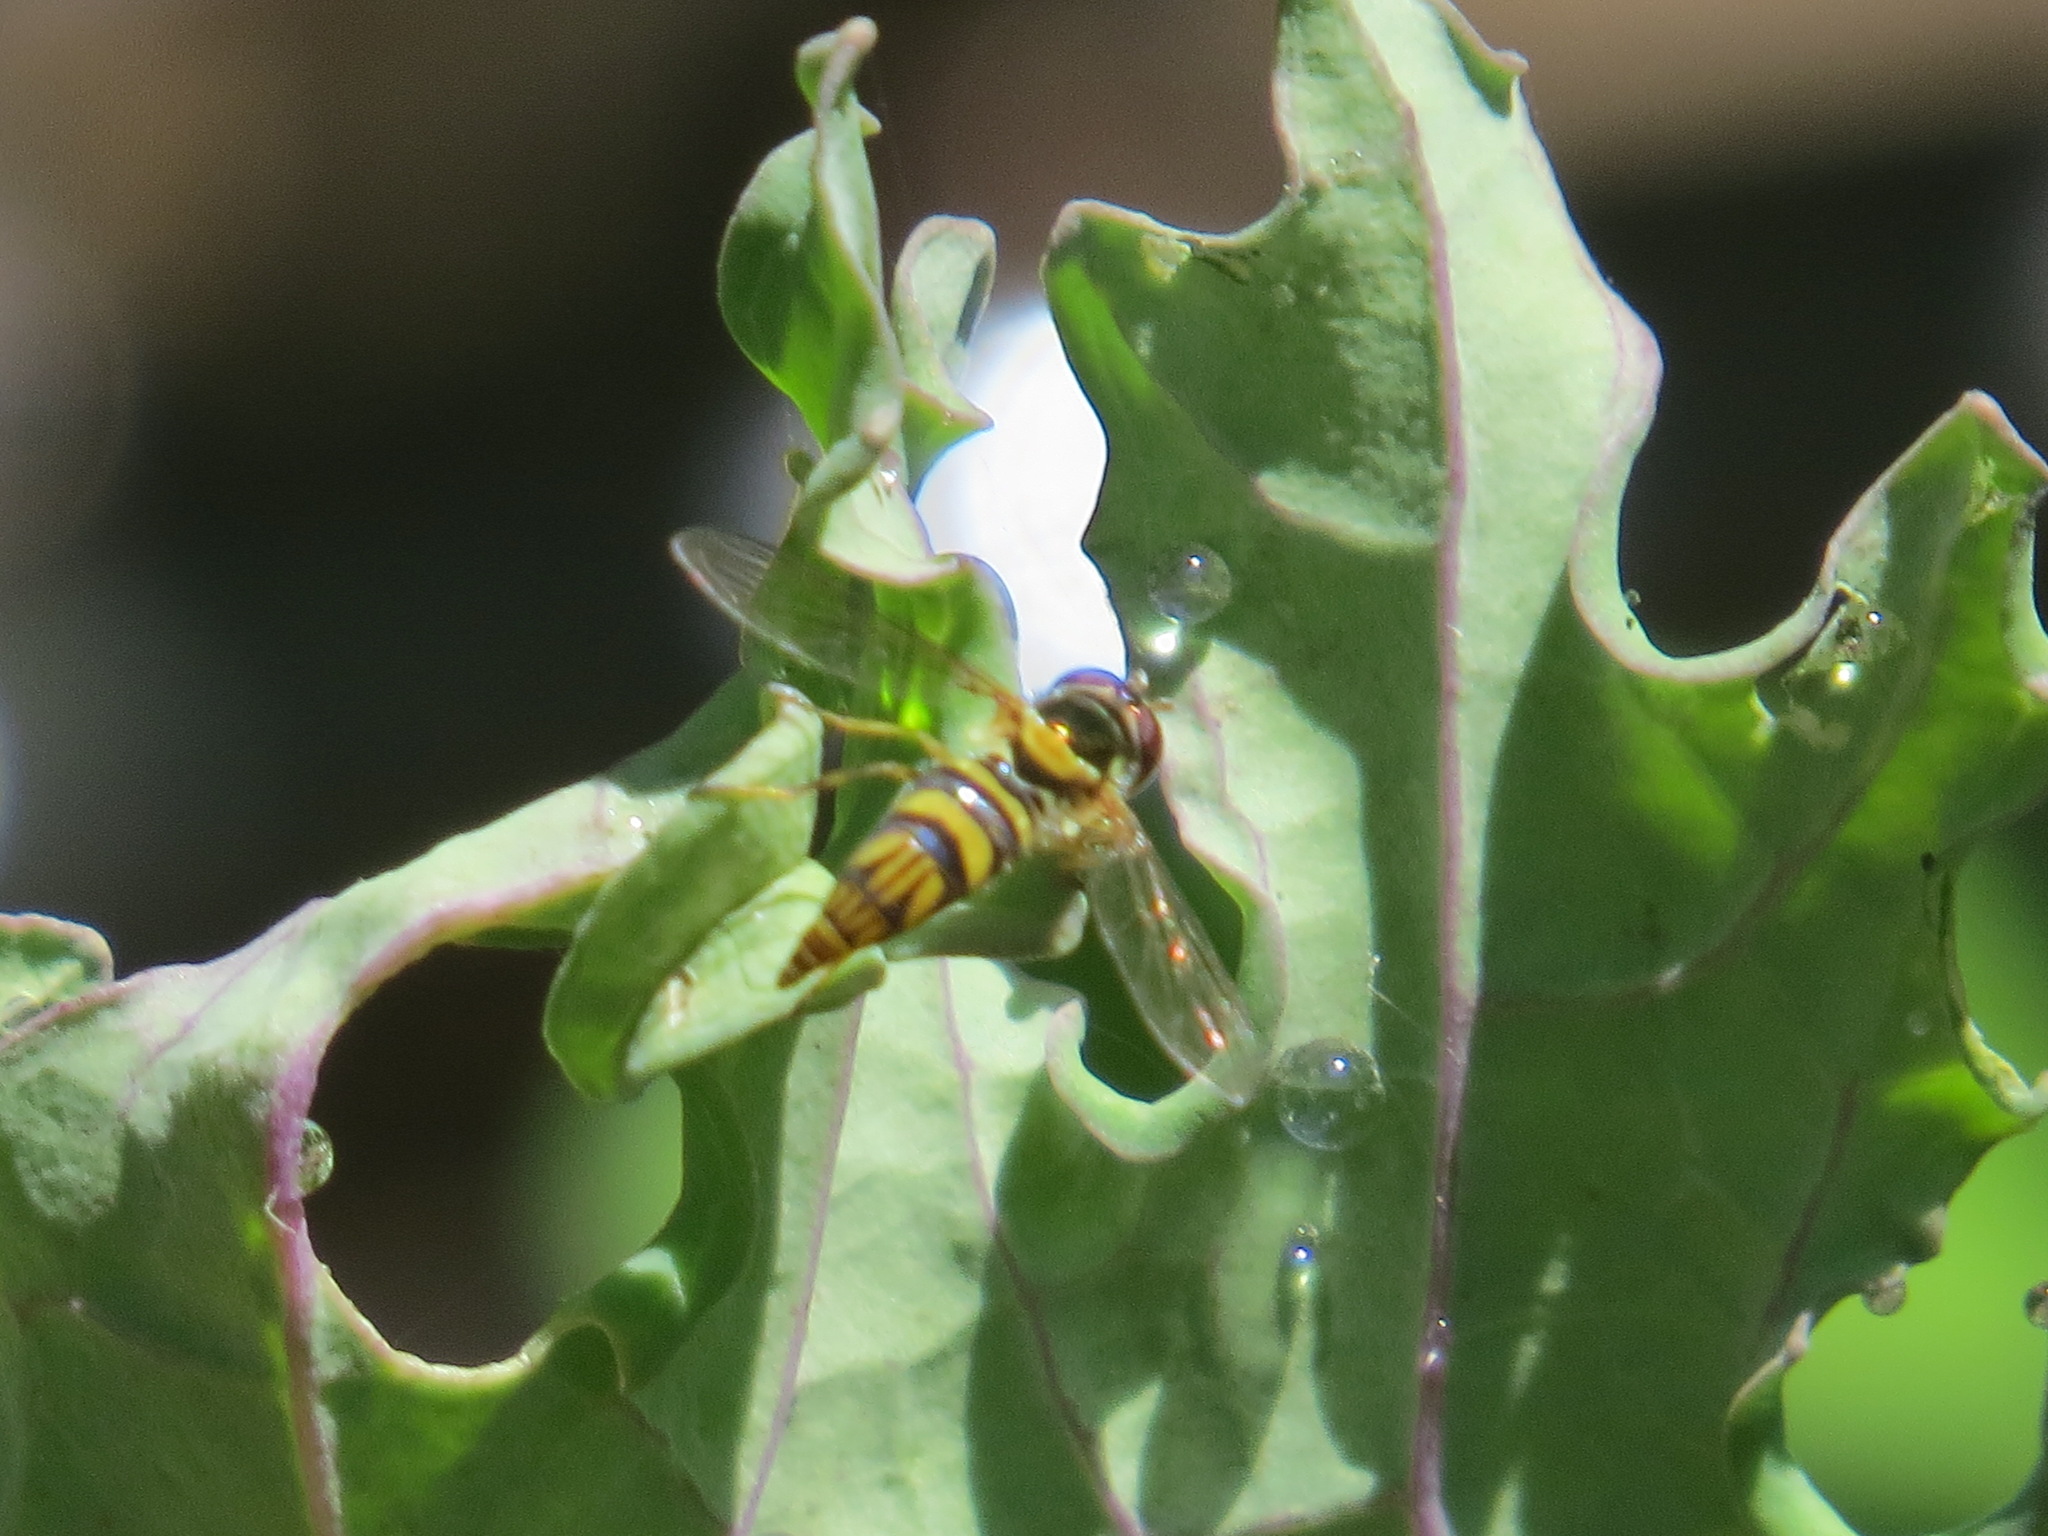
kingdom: Animalia
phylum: Arthropoda
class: Insecta
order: Diptera
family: Syrphidae
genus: Allograpta
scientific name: Allograpta obliqua
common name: Common oblique syrphid
